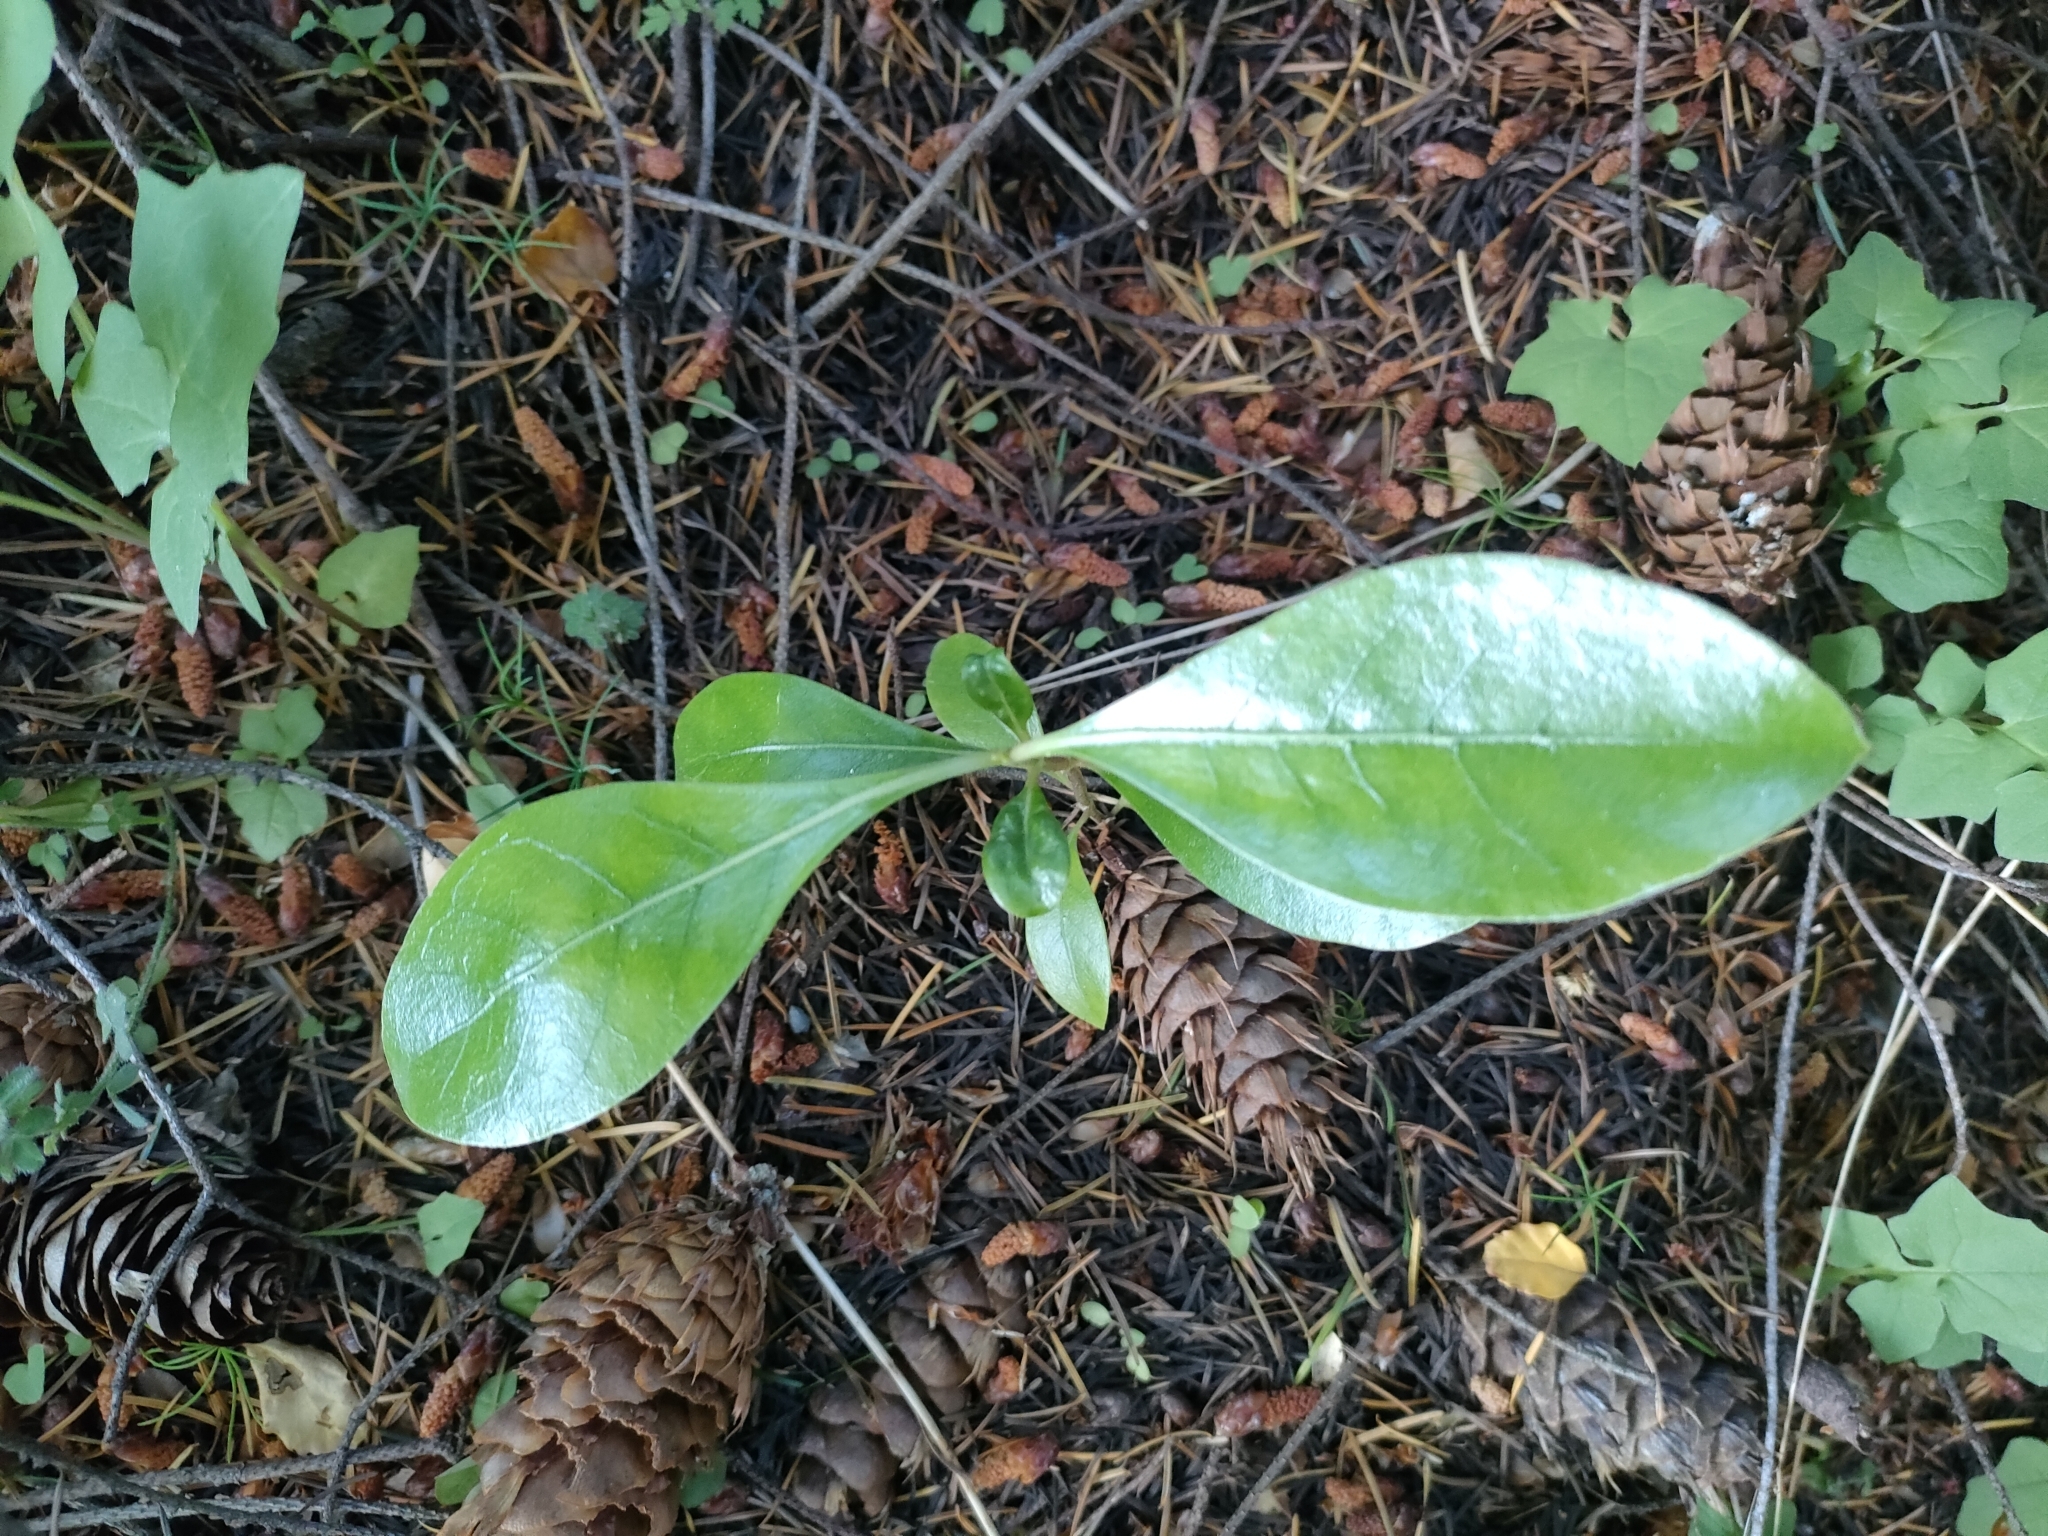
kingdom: Plantae
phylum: Tracheophyta
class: Magnoliopsida
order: Gentianales
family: Rubiaceae
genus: Coprosma
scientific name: Coprosma lucida
